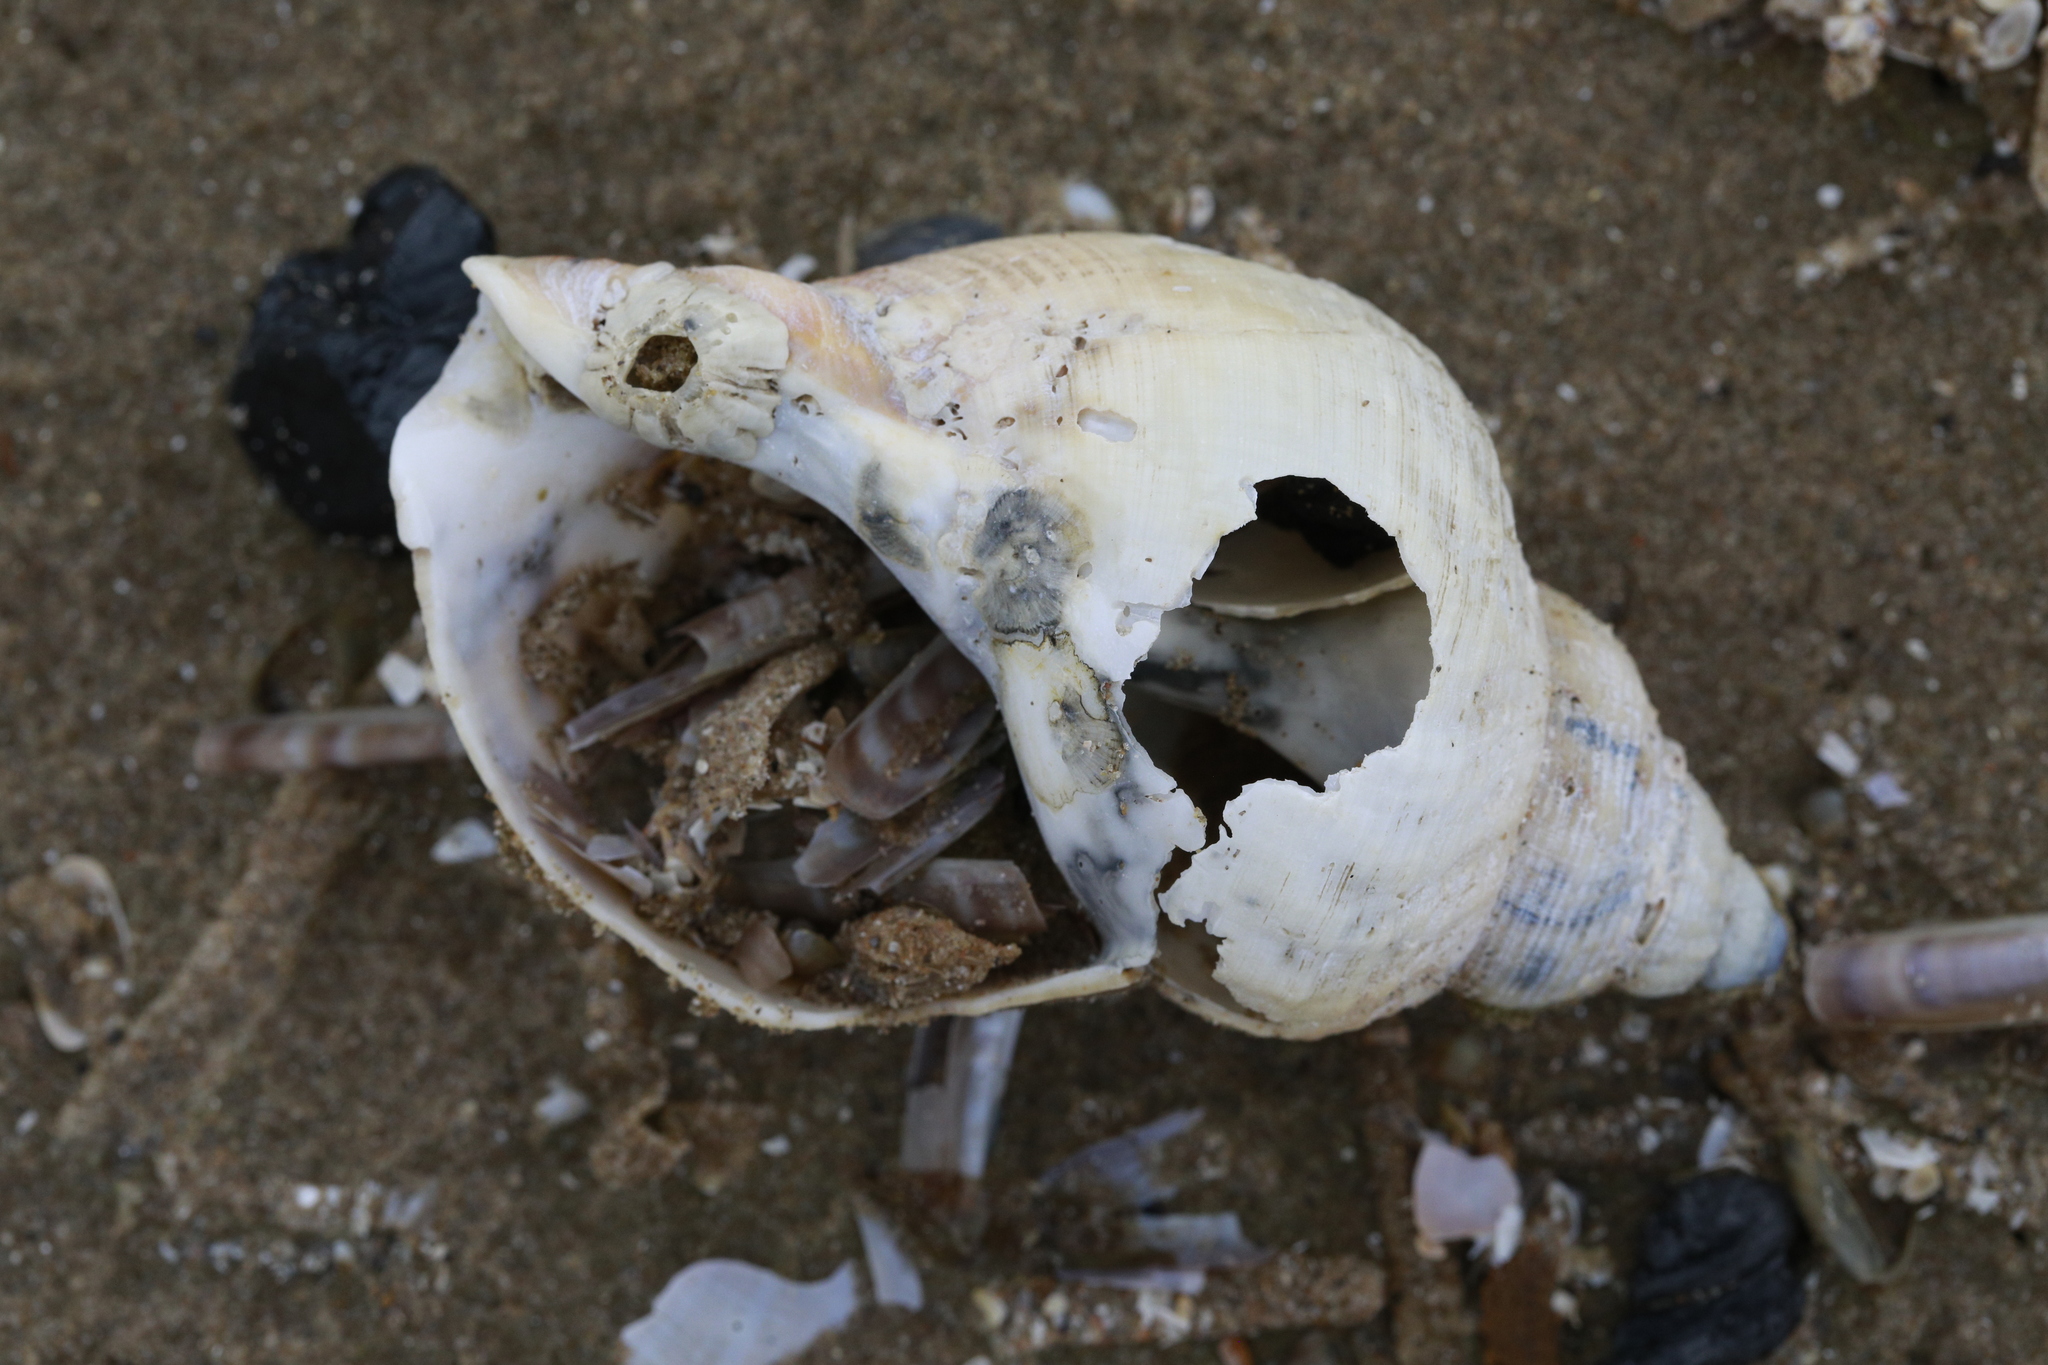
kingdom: Animalia
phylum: Mollusca
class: Gastropoda
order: Neogastropoda
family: Buccinidae
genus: Buccinum
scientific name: Buccinum undatum
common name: Common whelk
